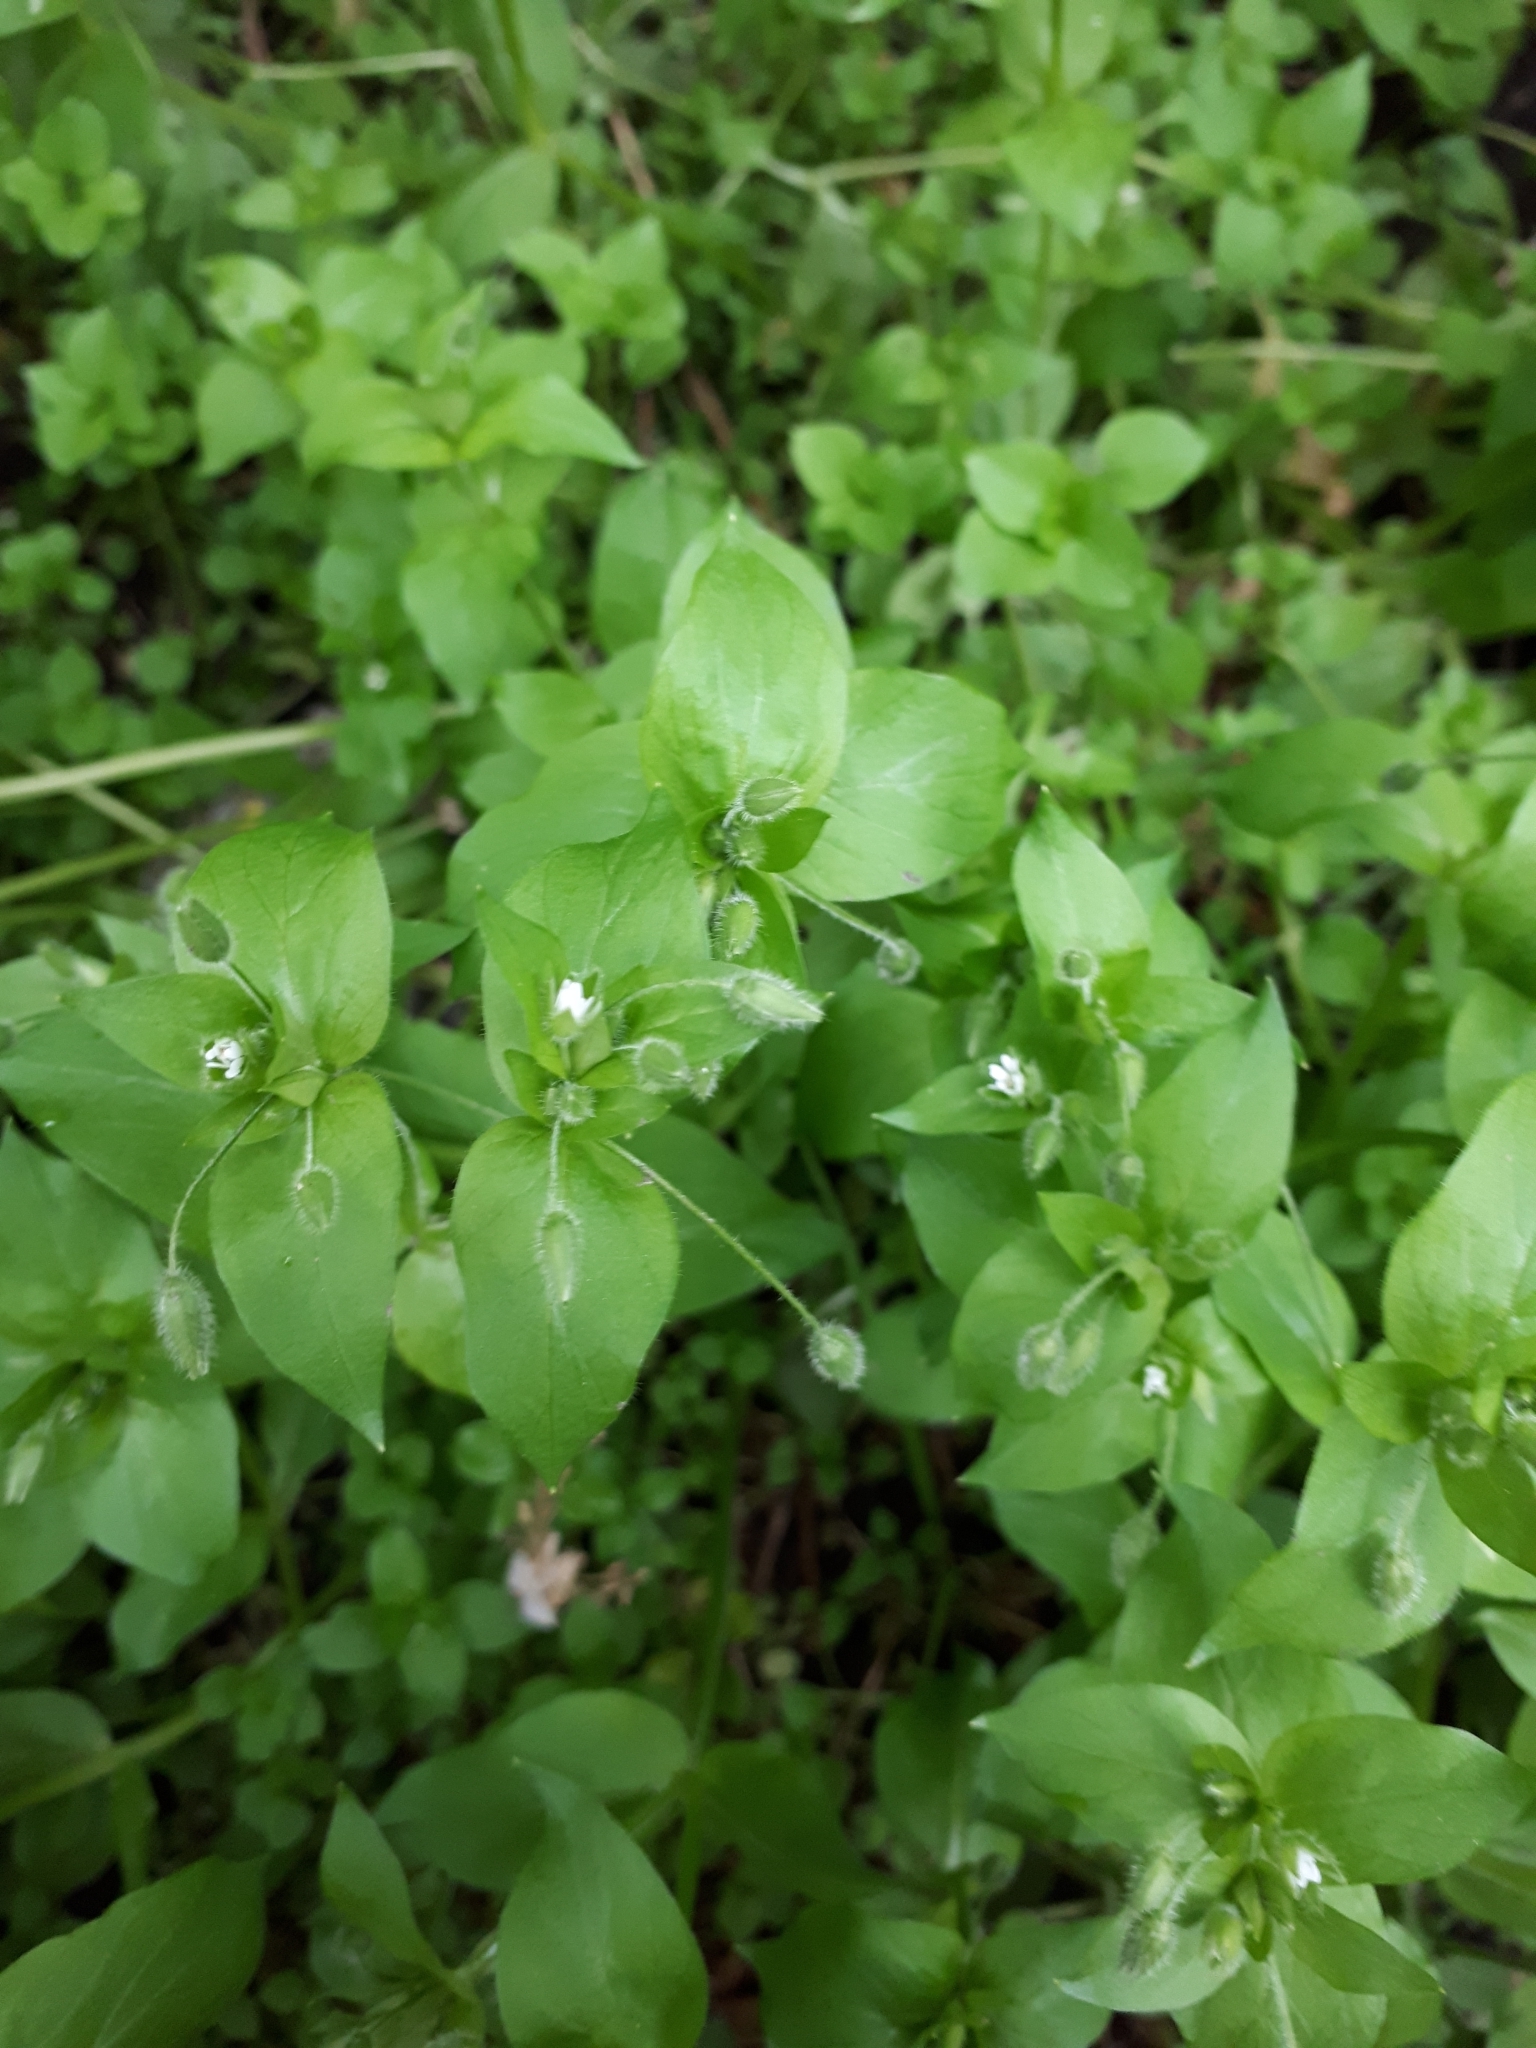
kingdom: Plantae
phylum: Tracheophyta
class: Magnoliopsida
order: Caryophyllales
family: Caryophyllaceae
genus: Stellaria
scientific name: Stellaria media
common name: Common chickweed
